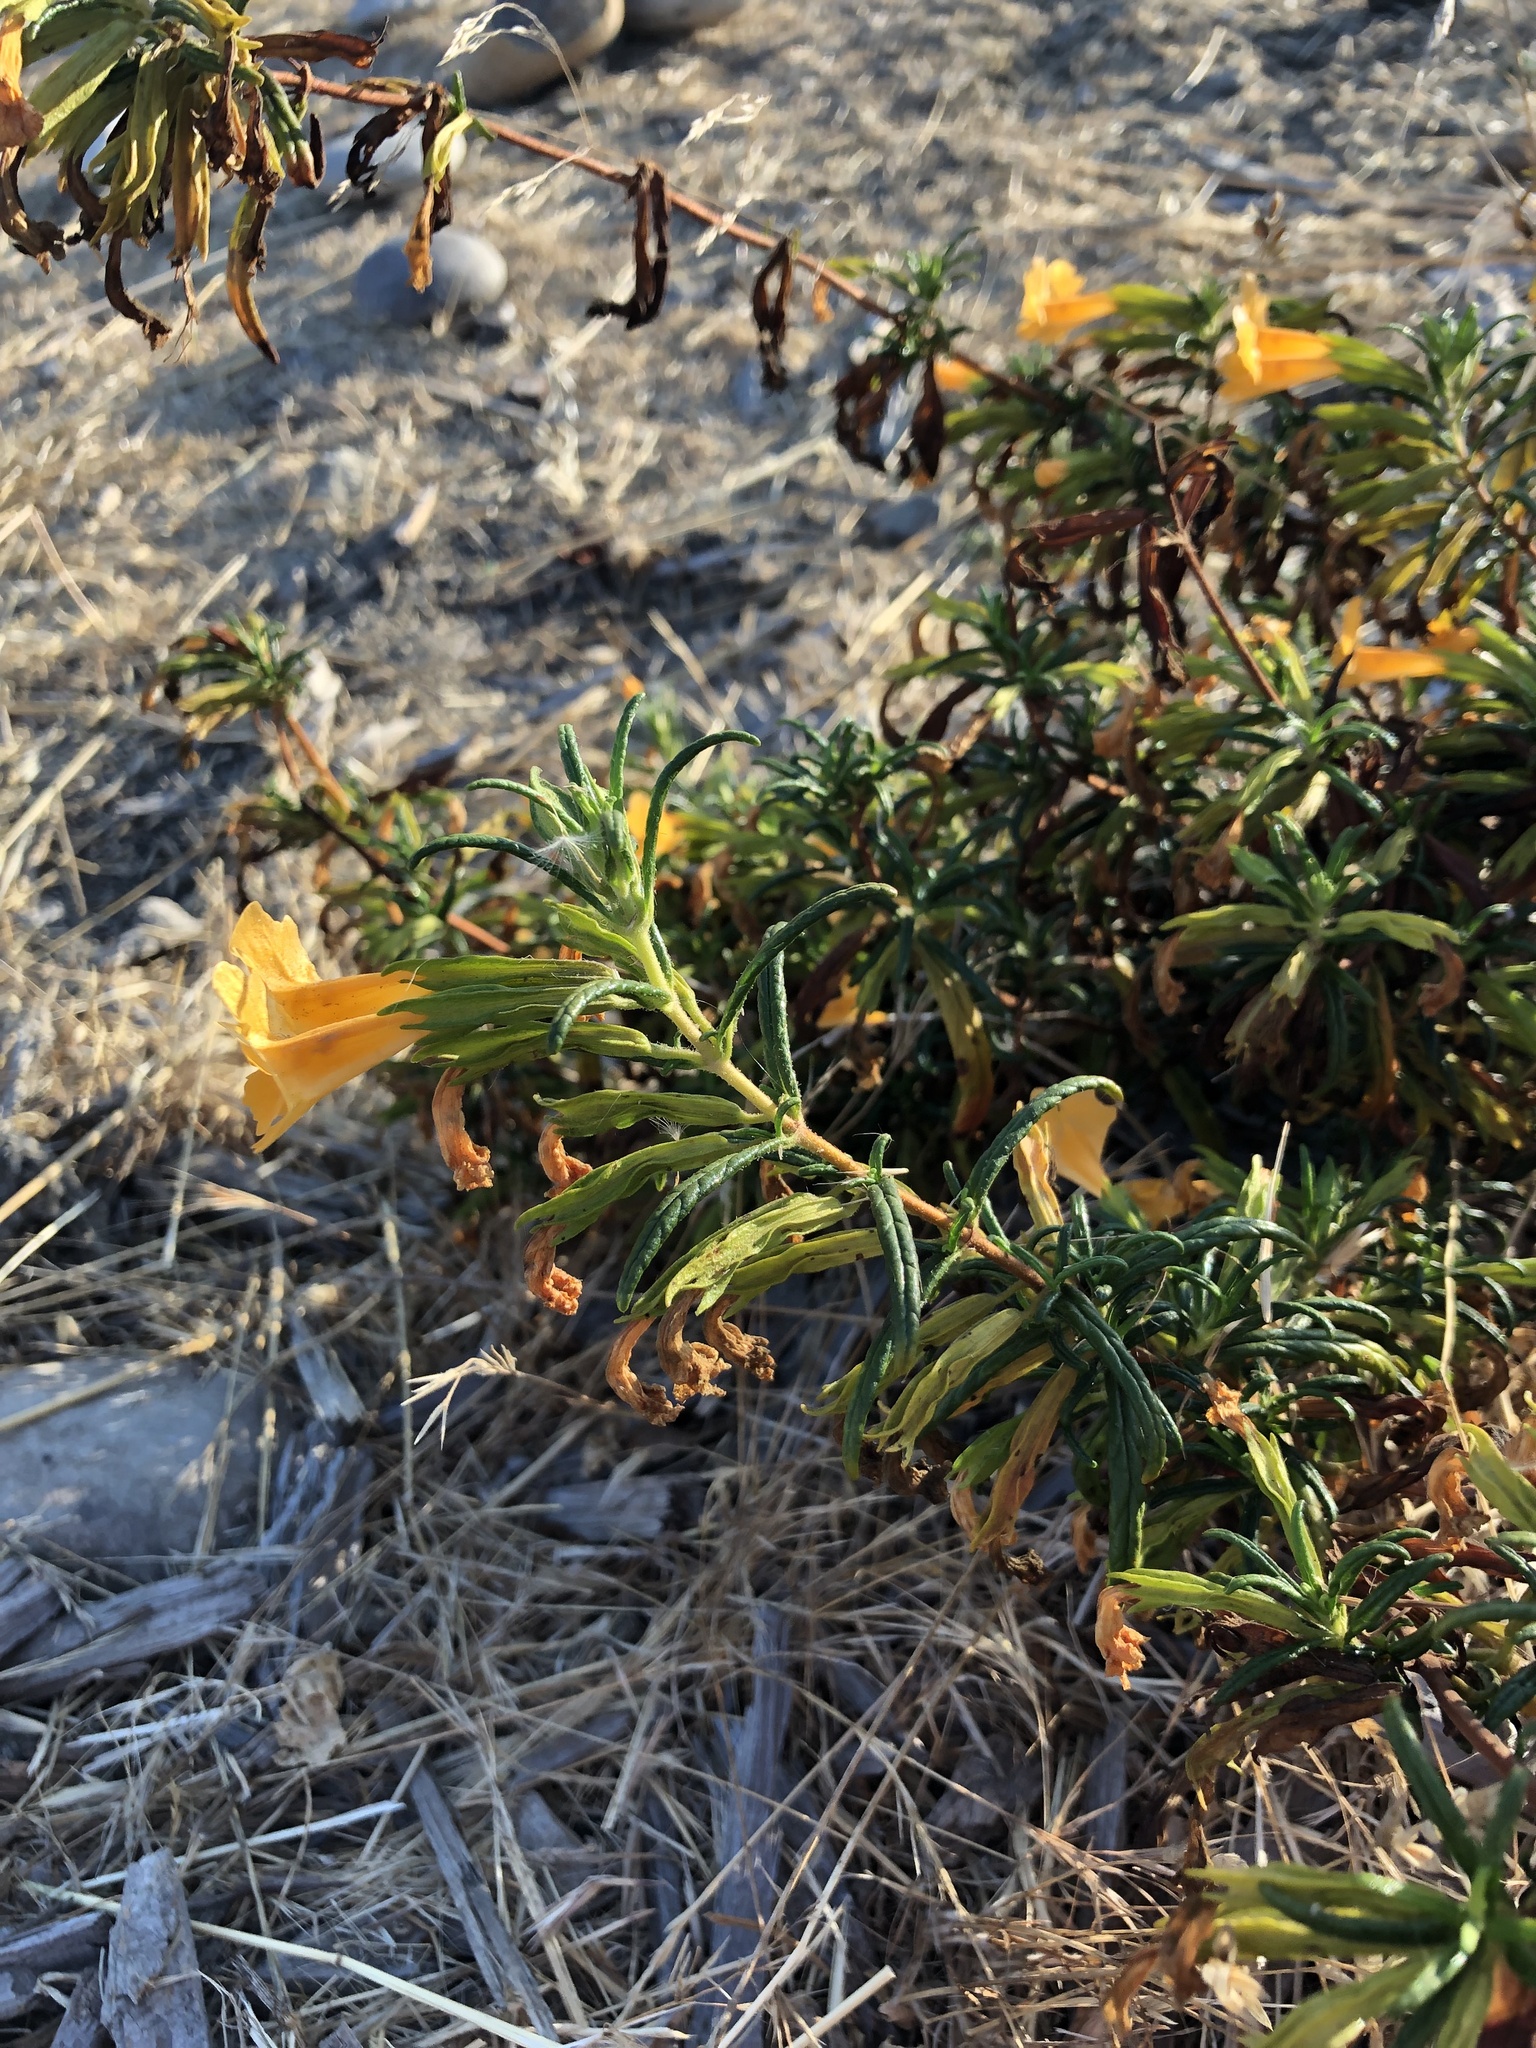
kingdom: Plantae
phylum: Tracheophyta
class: Magnoliopsida
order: Lamiales
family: Phrymaceae
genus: Diplacus
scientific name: Diplacus aurantiacus
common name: Bush monkey-flower
